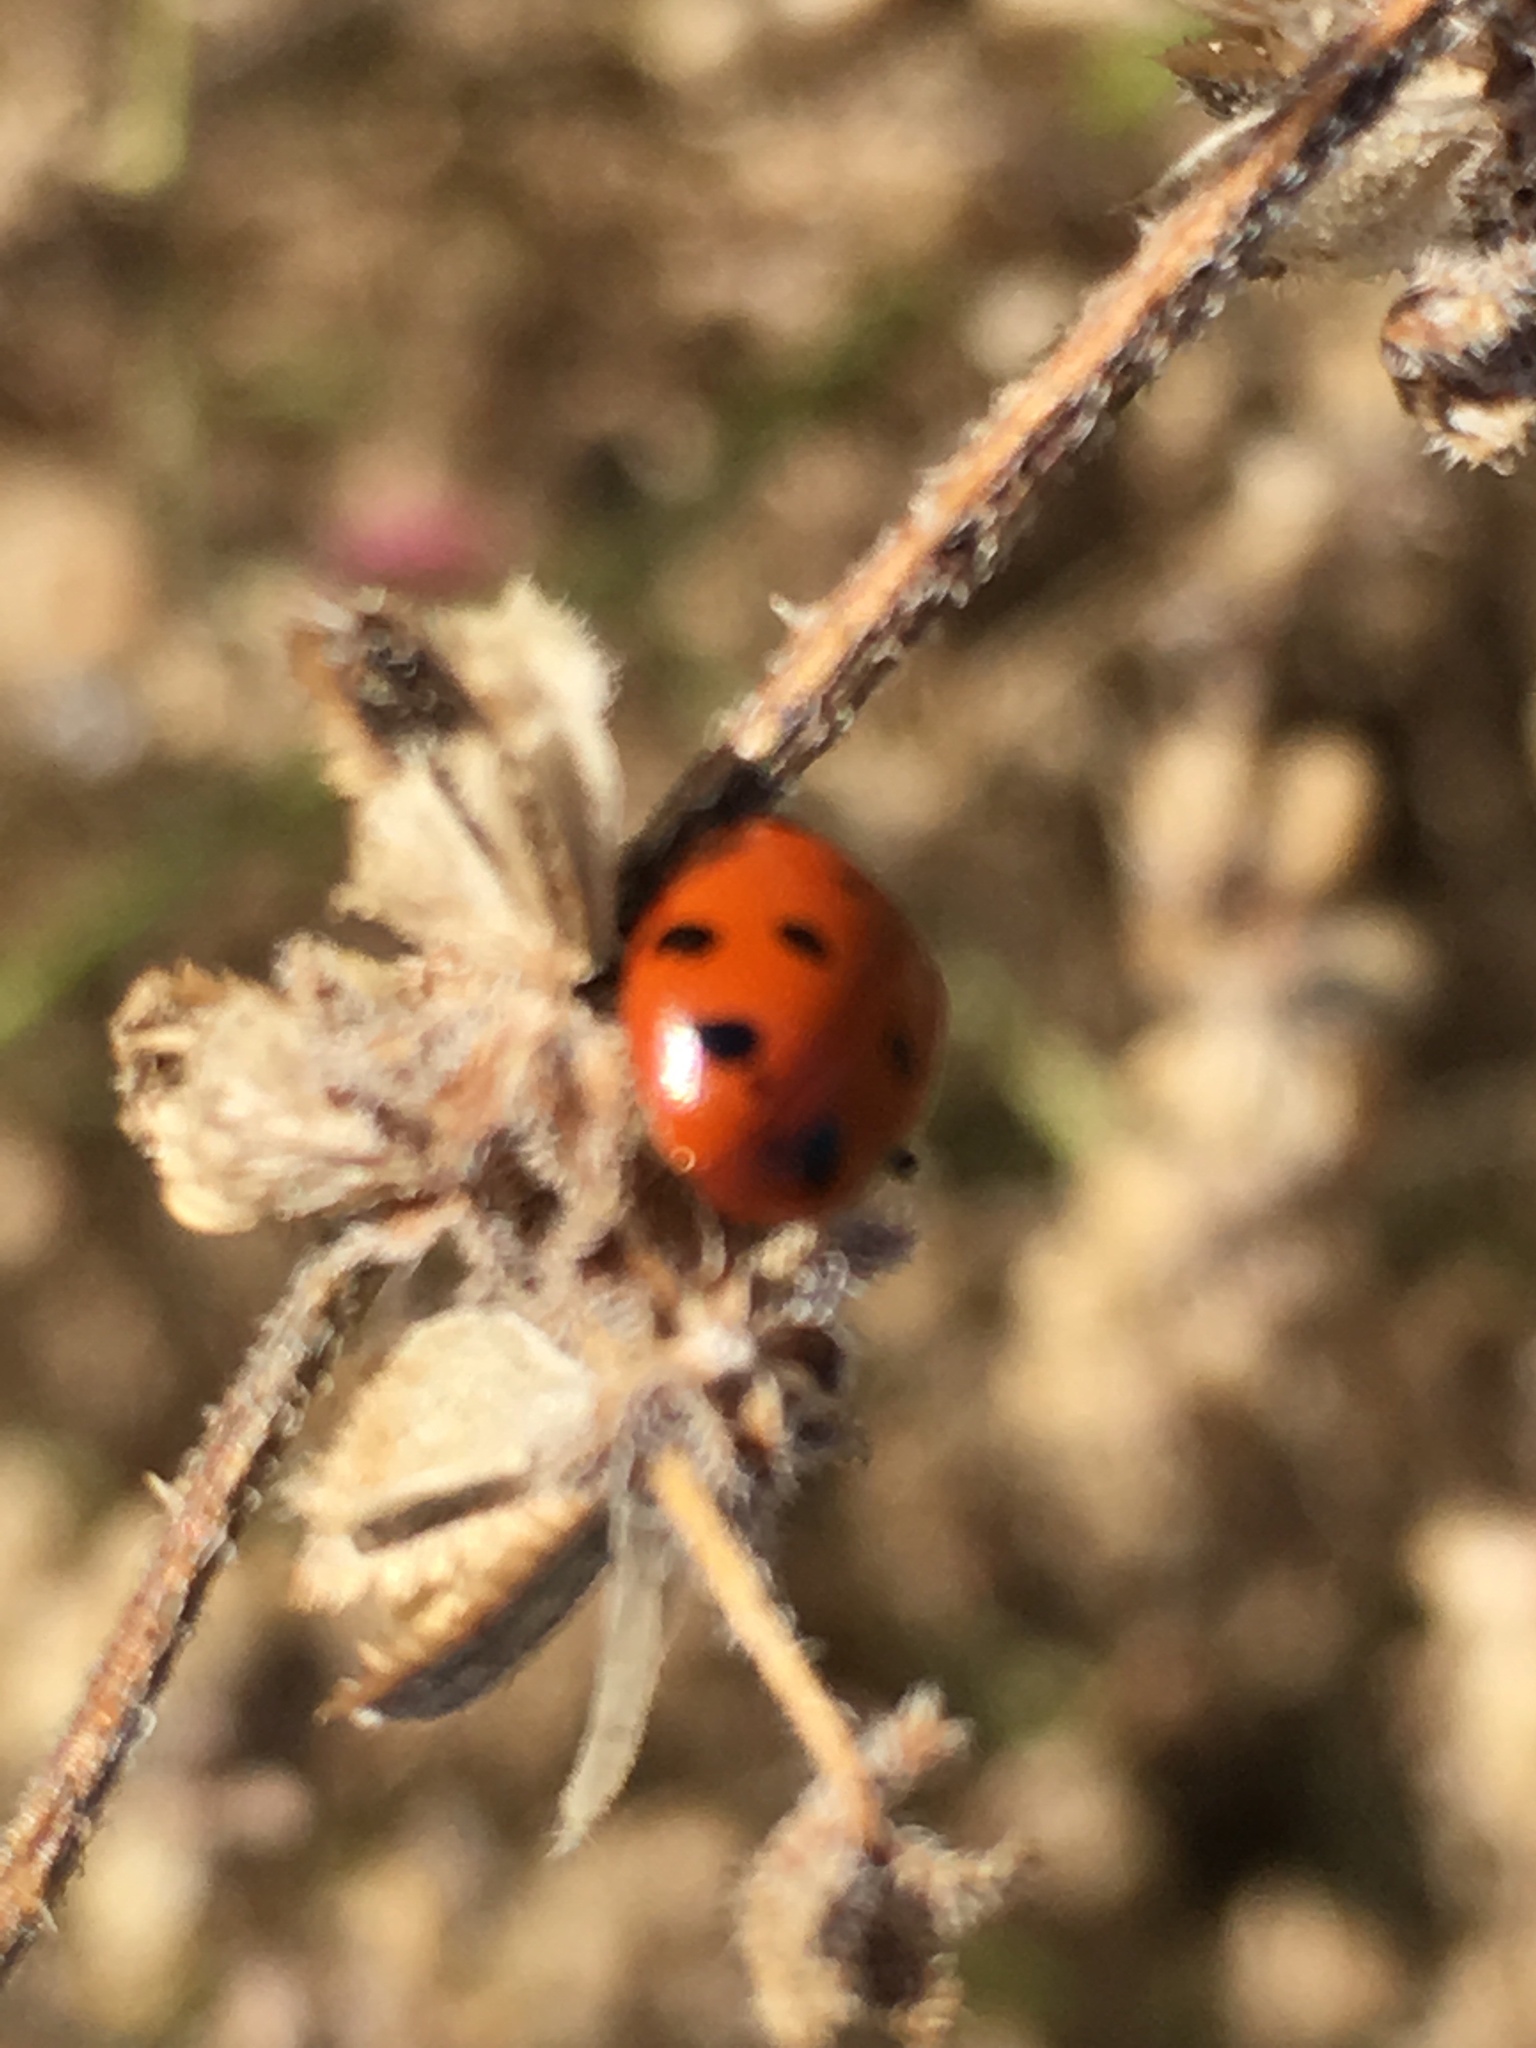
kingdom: Plantae
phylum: Tracheophyta
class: Magnoliopsida
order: Asterales
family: Asteraceae
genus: Dicoria
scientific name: Dicoria canescens
